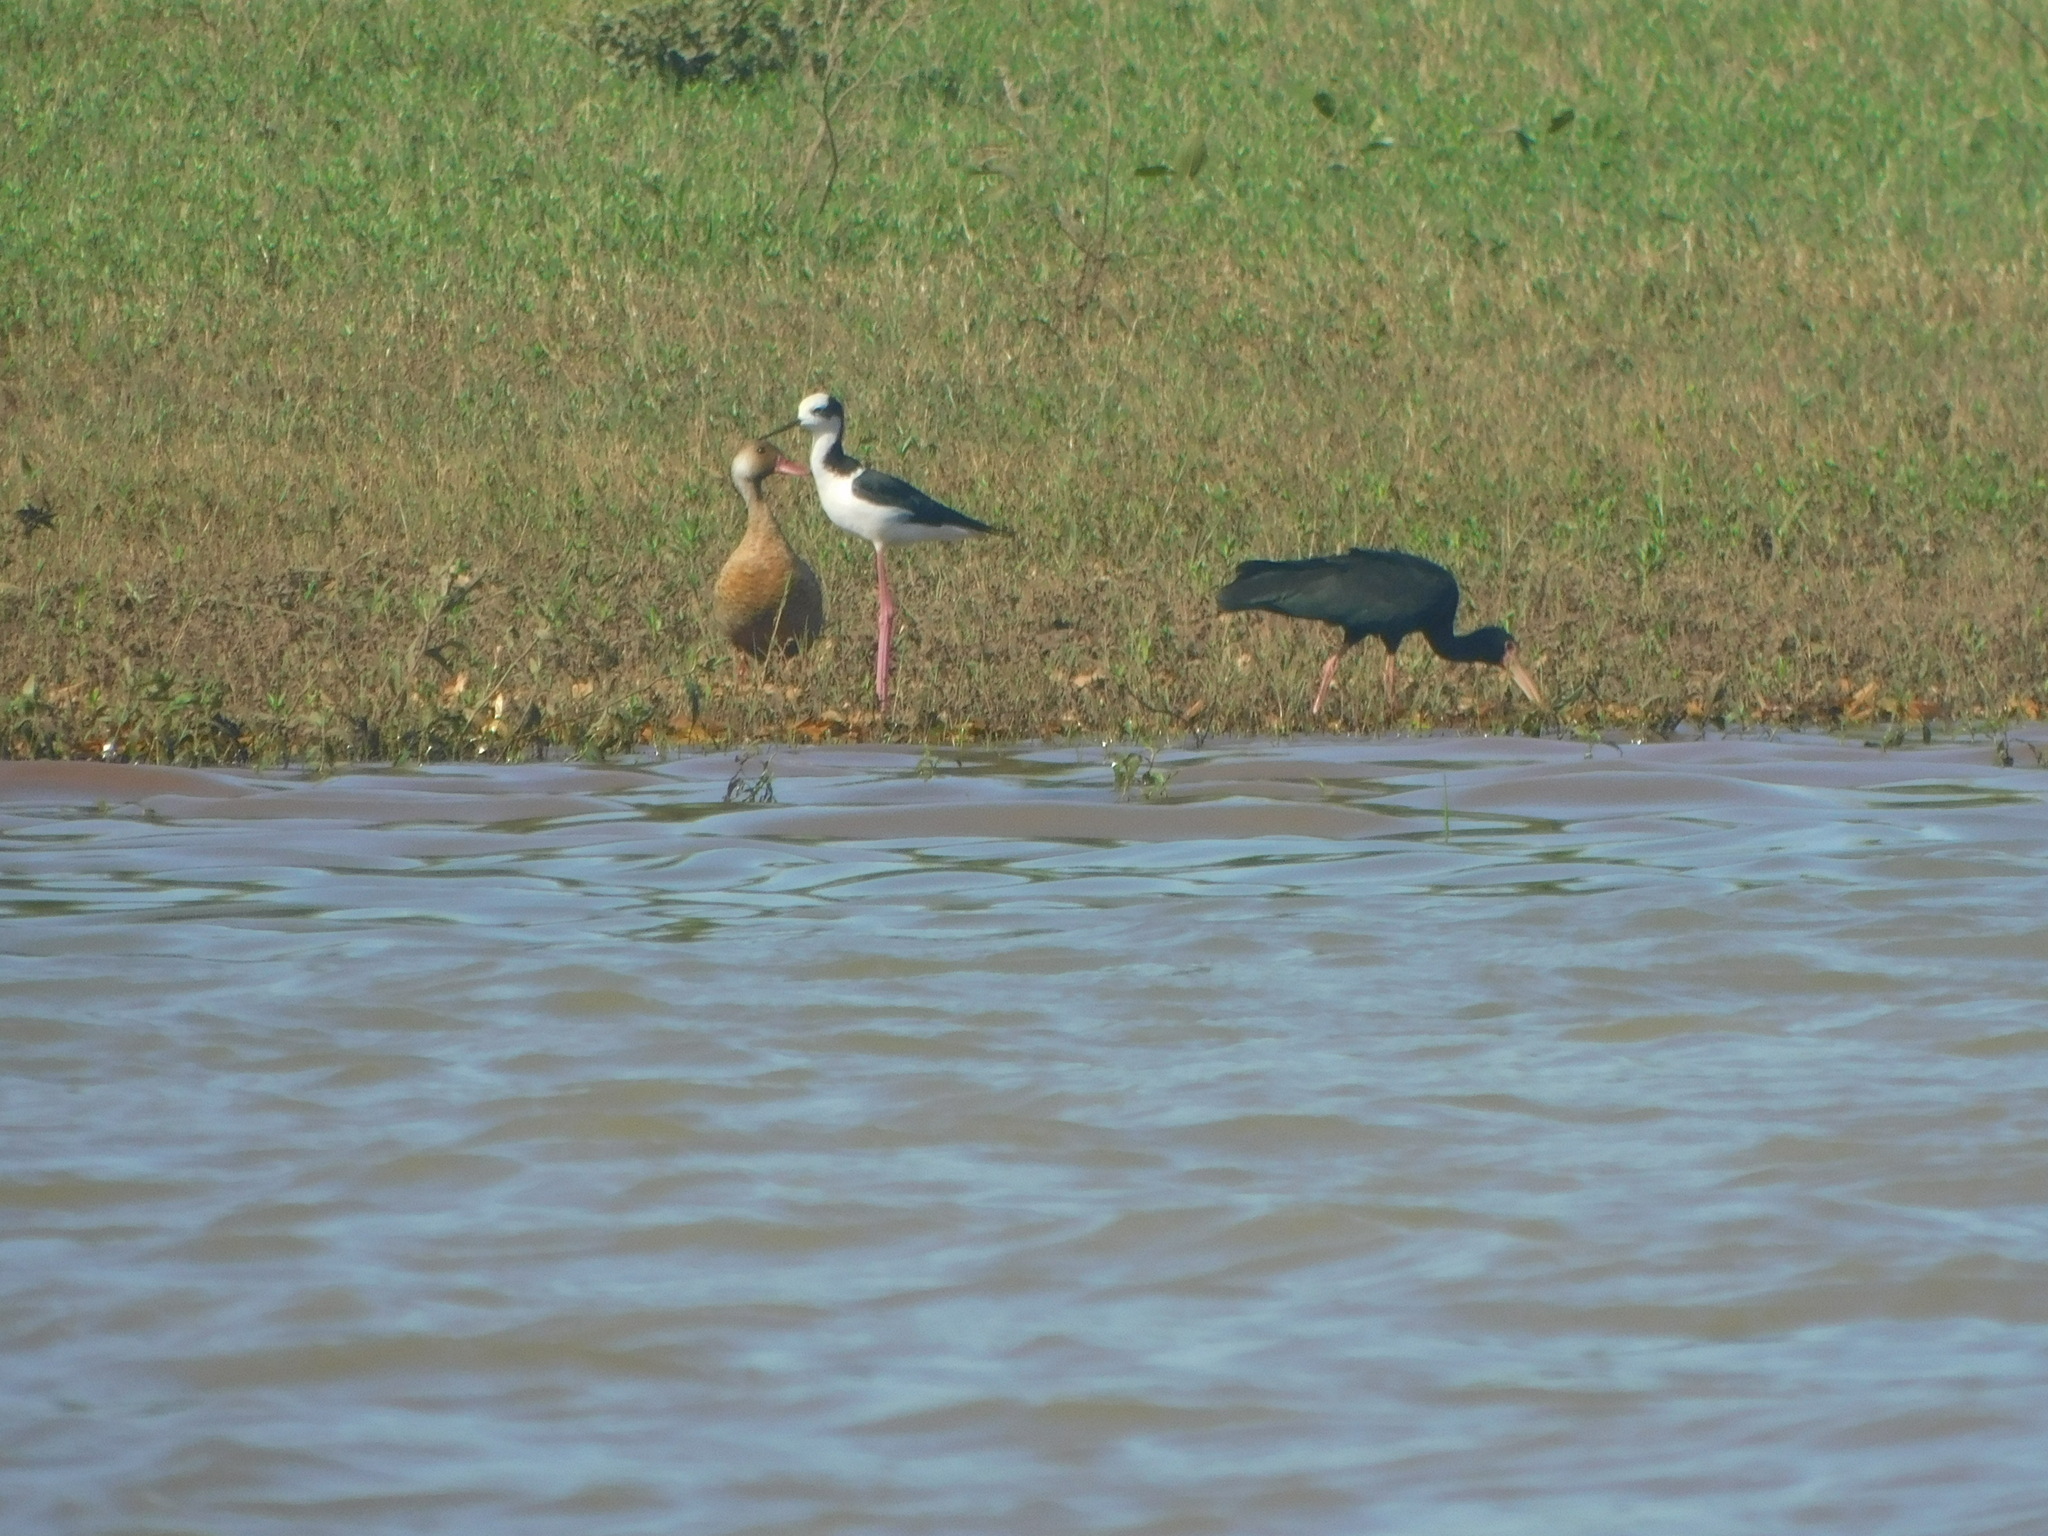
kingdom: Animalia
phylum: Chordata
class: Aves
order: Pelecaniformes
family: Threskiornithidae
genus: Phimosus
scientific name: Phimosus infuscatus
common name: Bare-faced ibis
